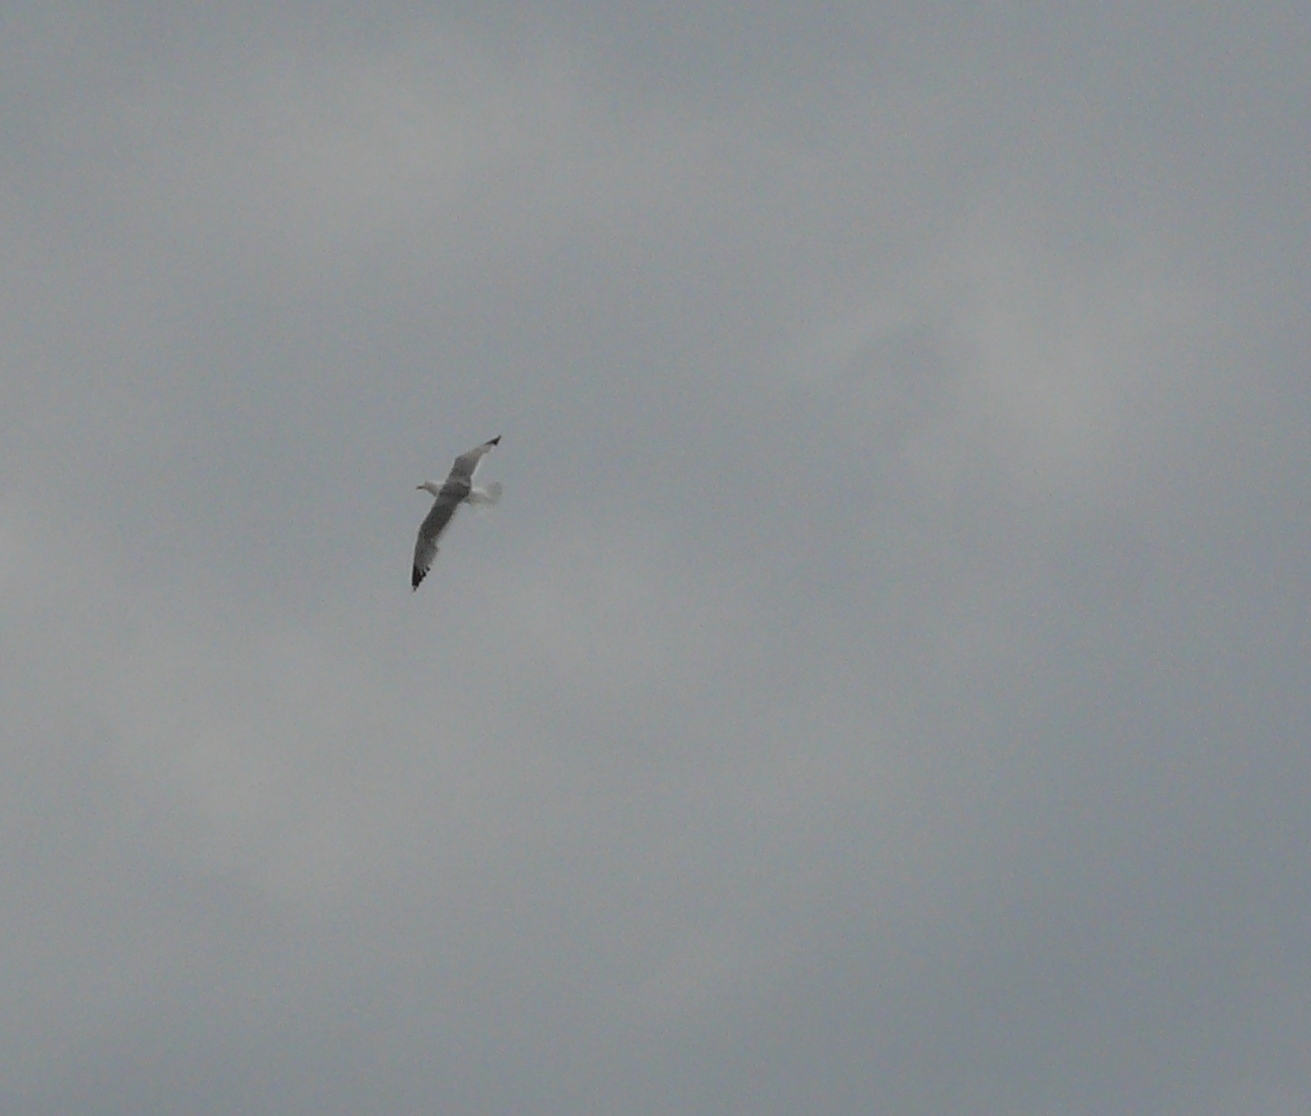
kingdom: Animalia
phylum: Chordata
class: Aves
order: Charadriiformes
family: Laridae
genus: Larus
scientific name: Larus cachinnans
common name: Caspian gull
